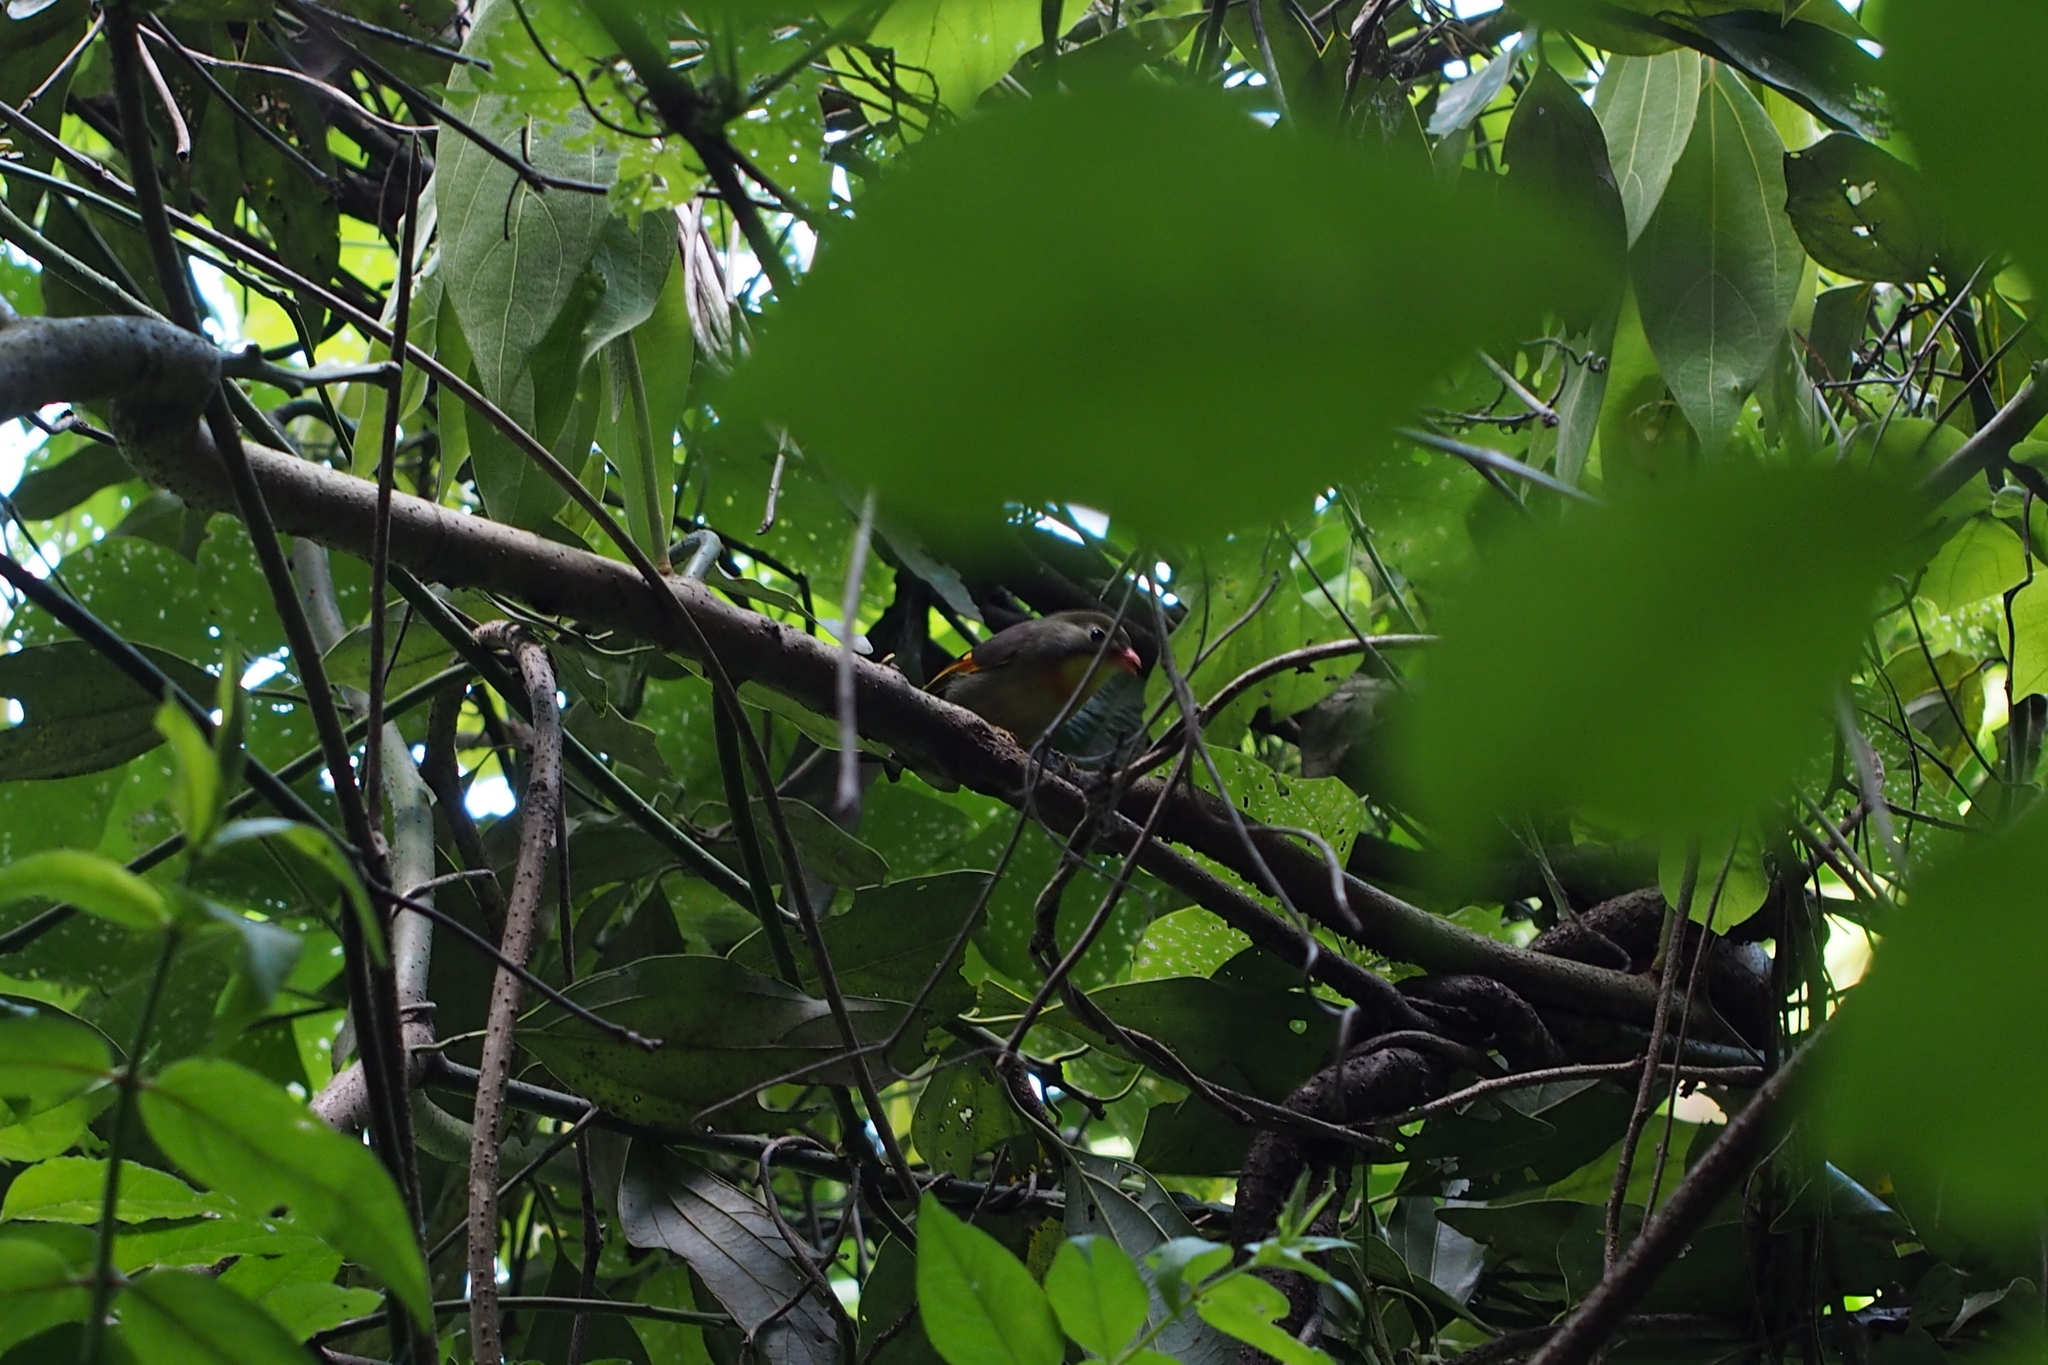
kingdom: Animalia
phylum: Chordata
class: Aves
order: Passeriformes
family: Leiothrichidae
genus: Leiothrix
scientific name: Leiothrix lutea
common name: Red-billed leiothrix
